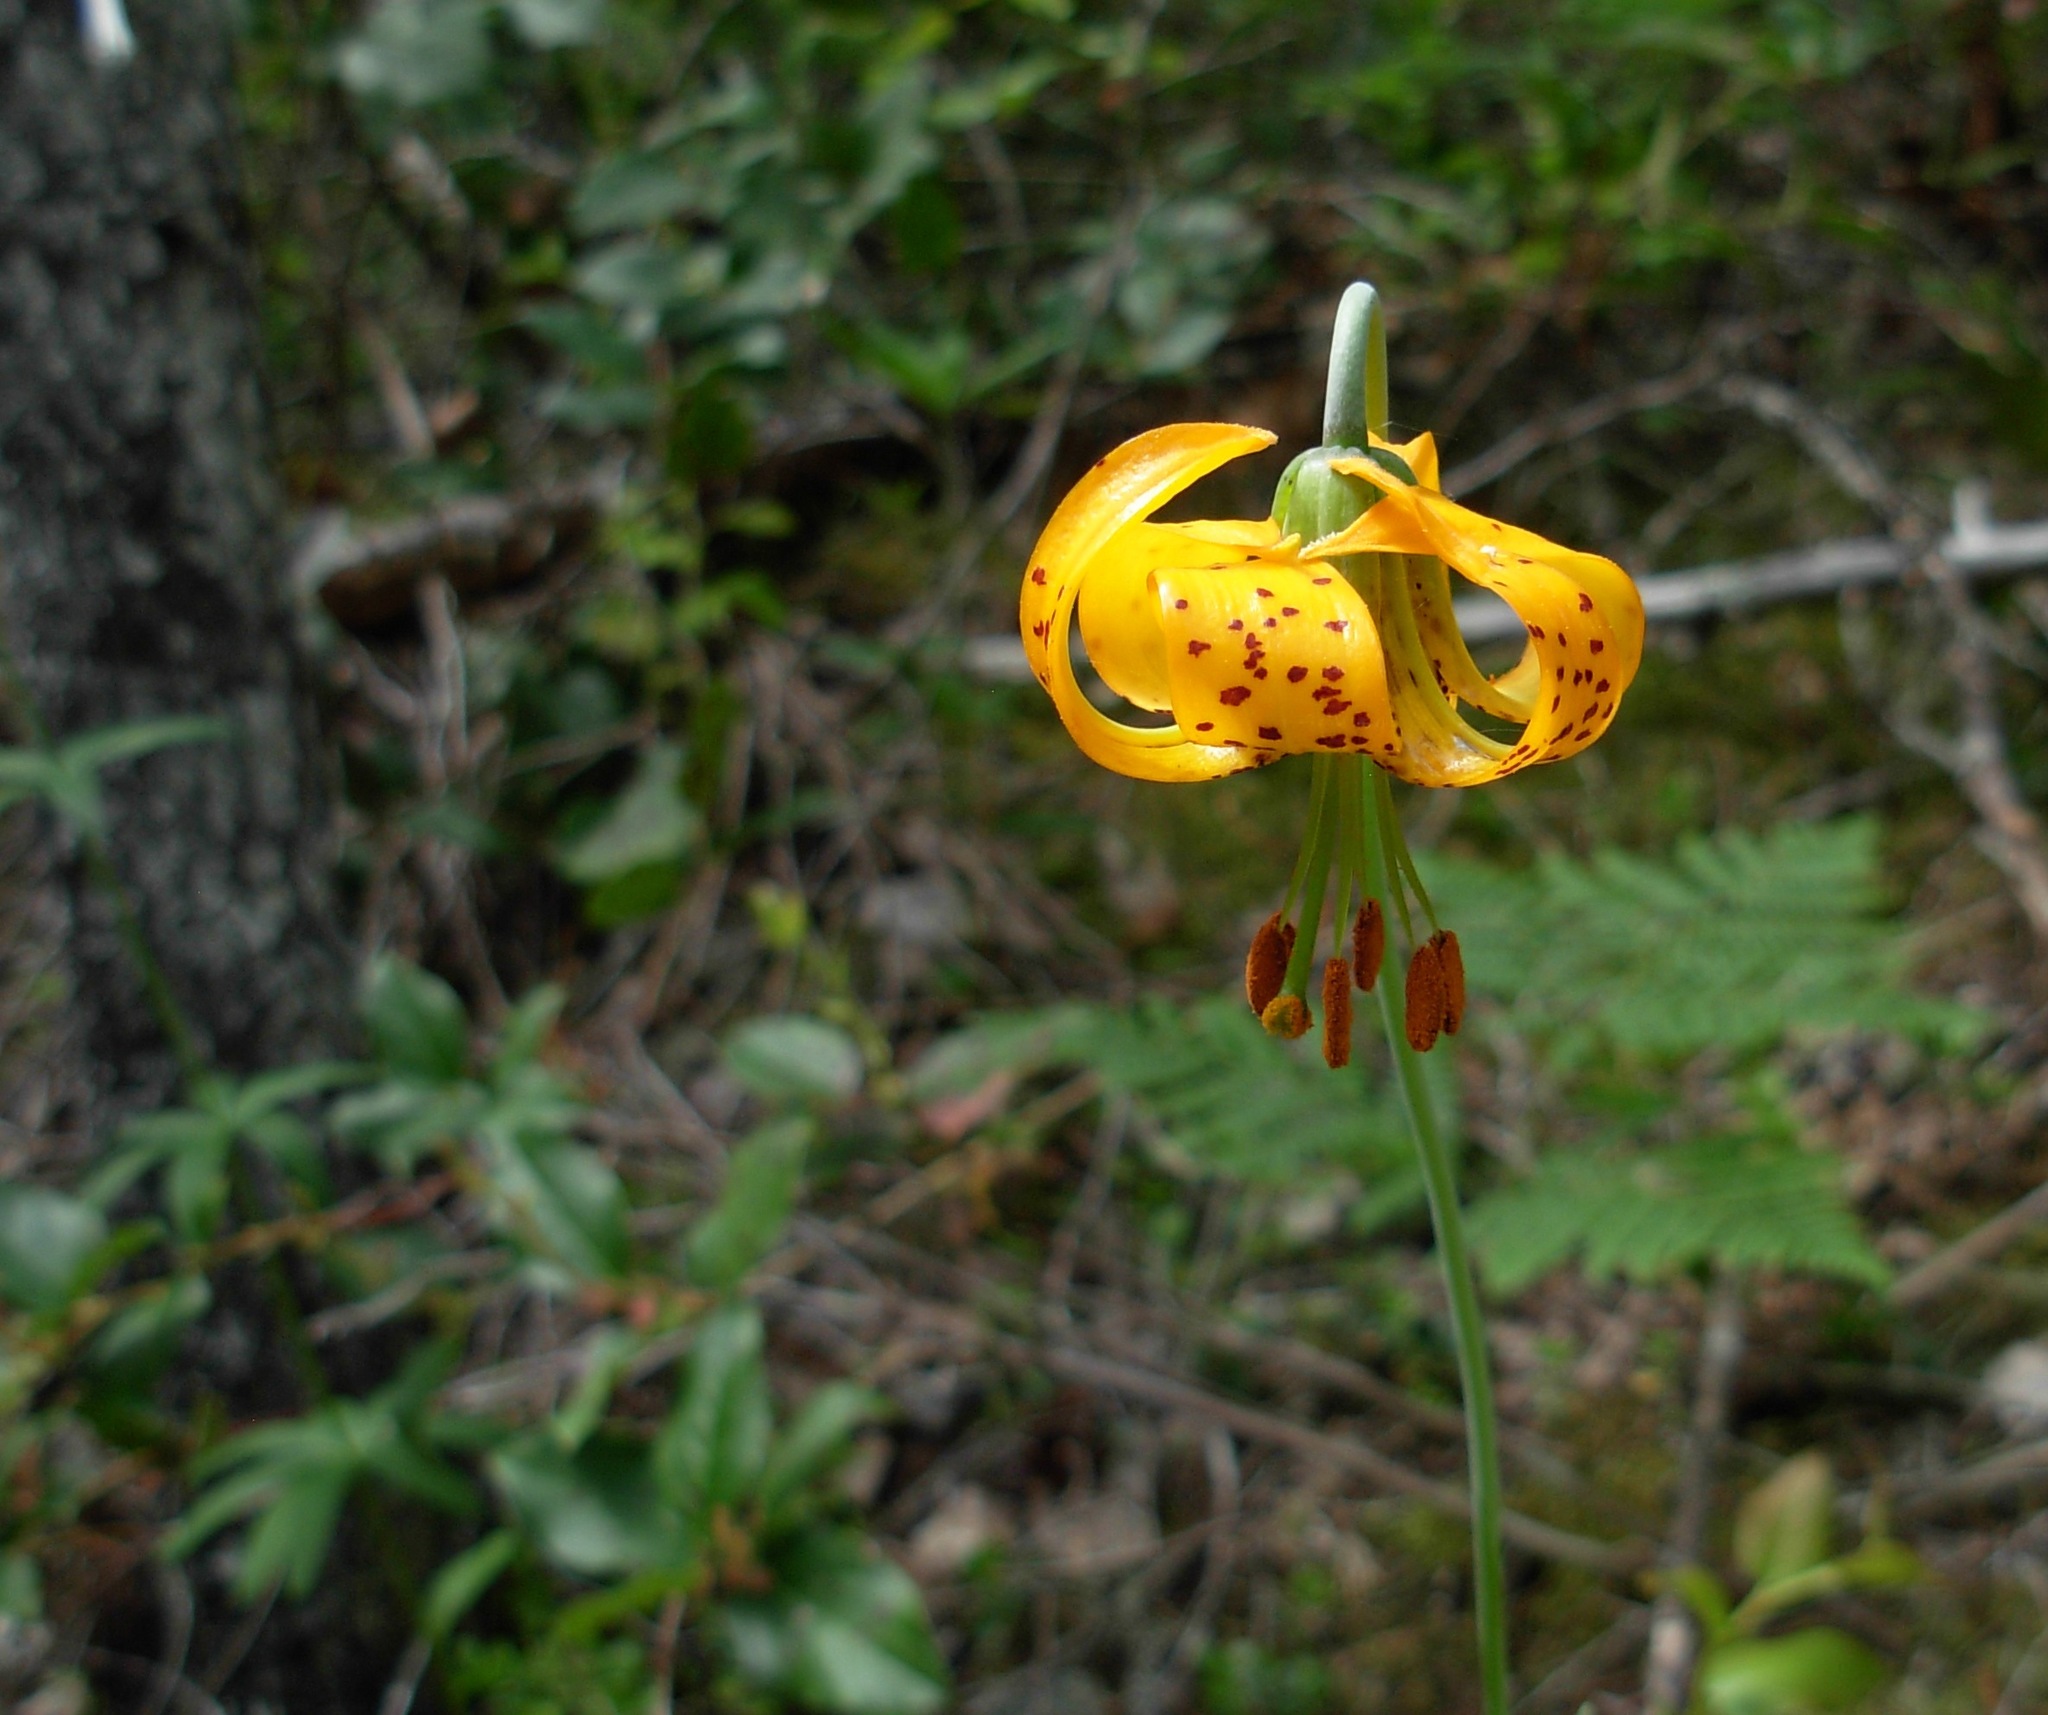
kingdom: Plantae
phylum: Tracheophyta
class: Liliopsida
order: Liliales
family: Liliaceae
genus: Lilium
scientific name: Lilium columbianum
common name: Columbia lily
